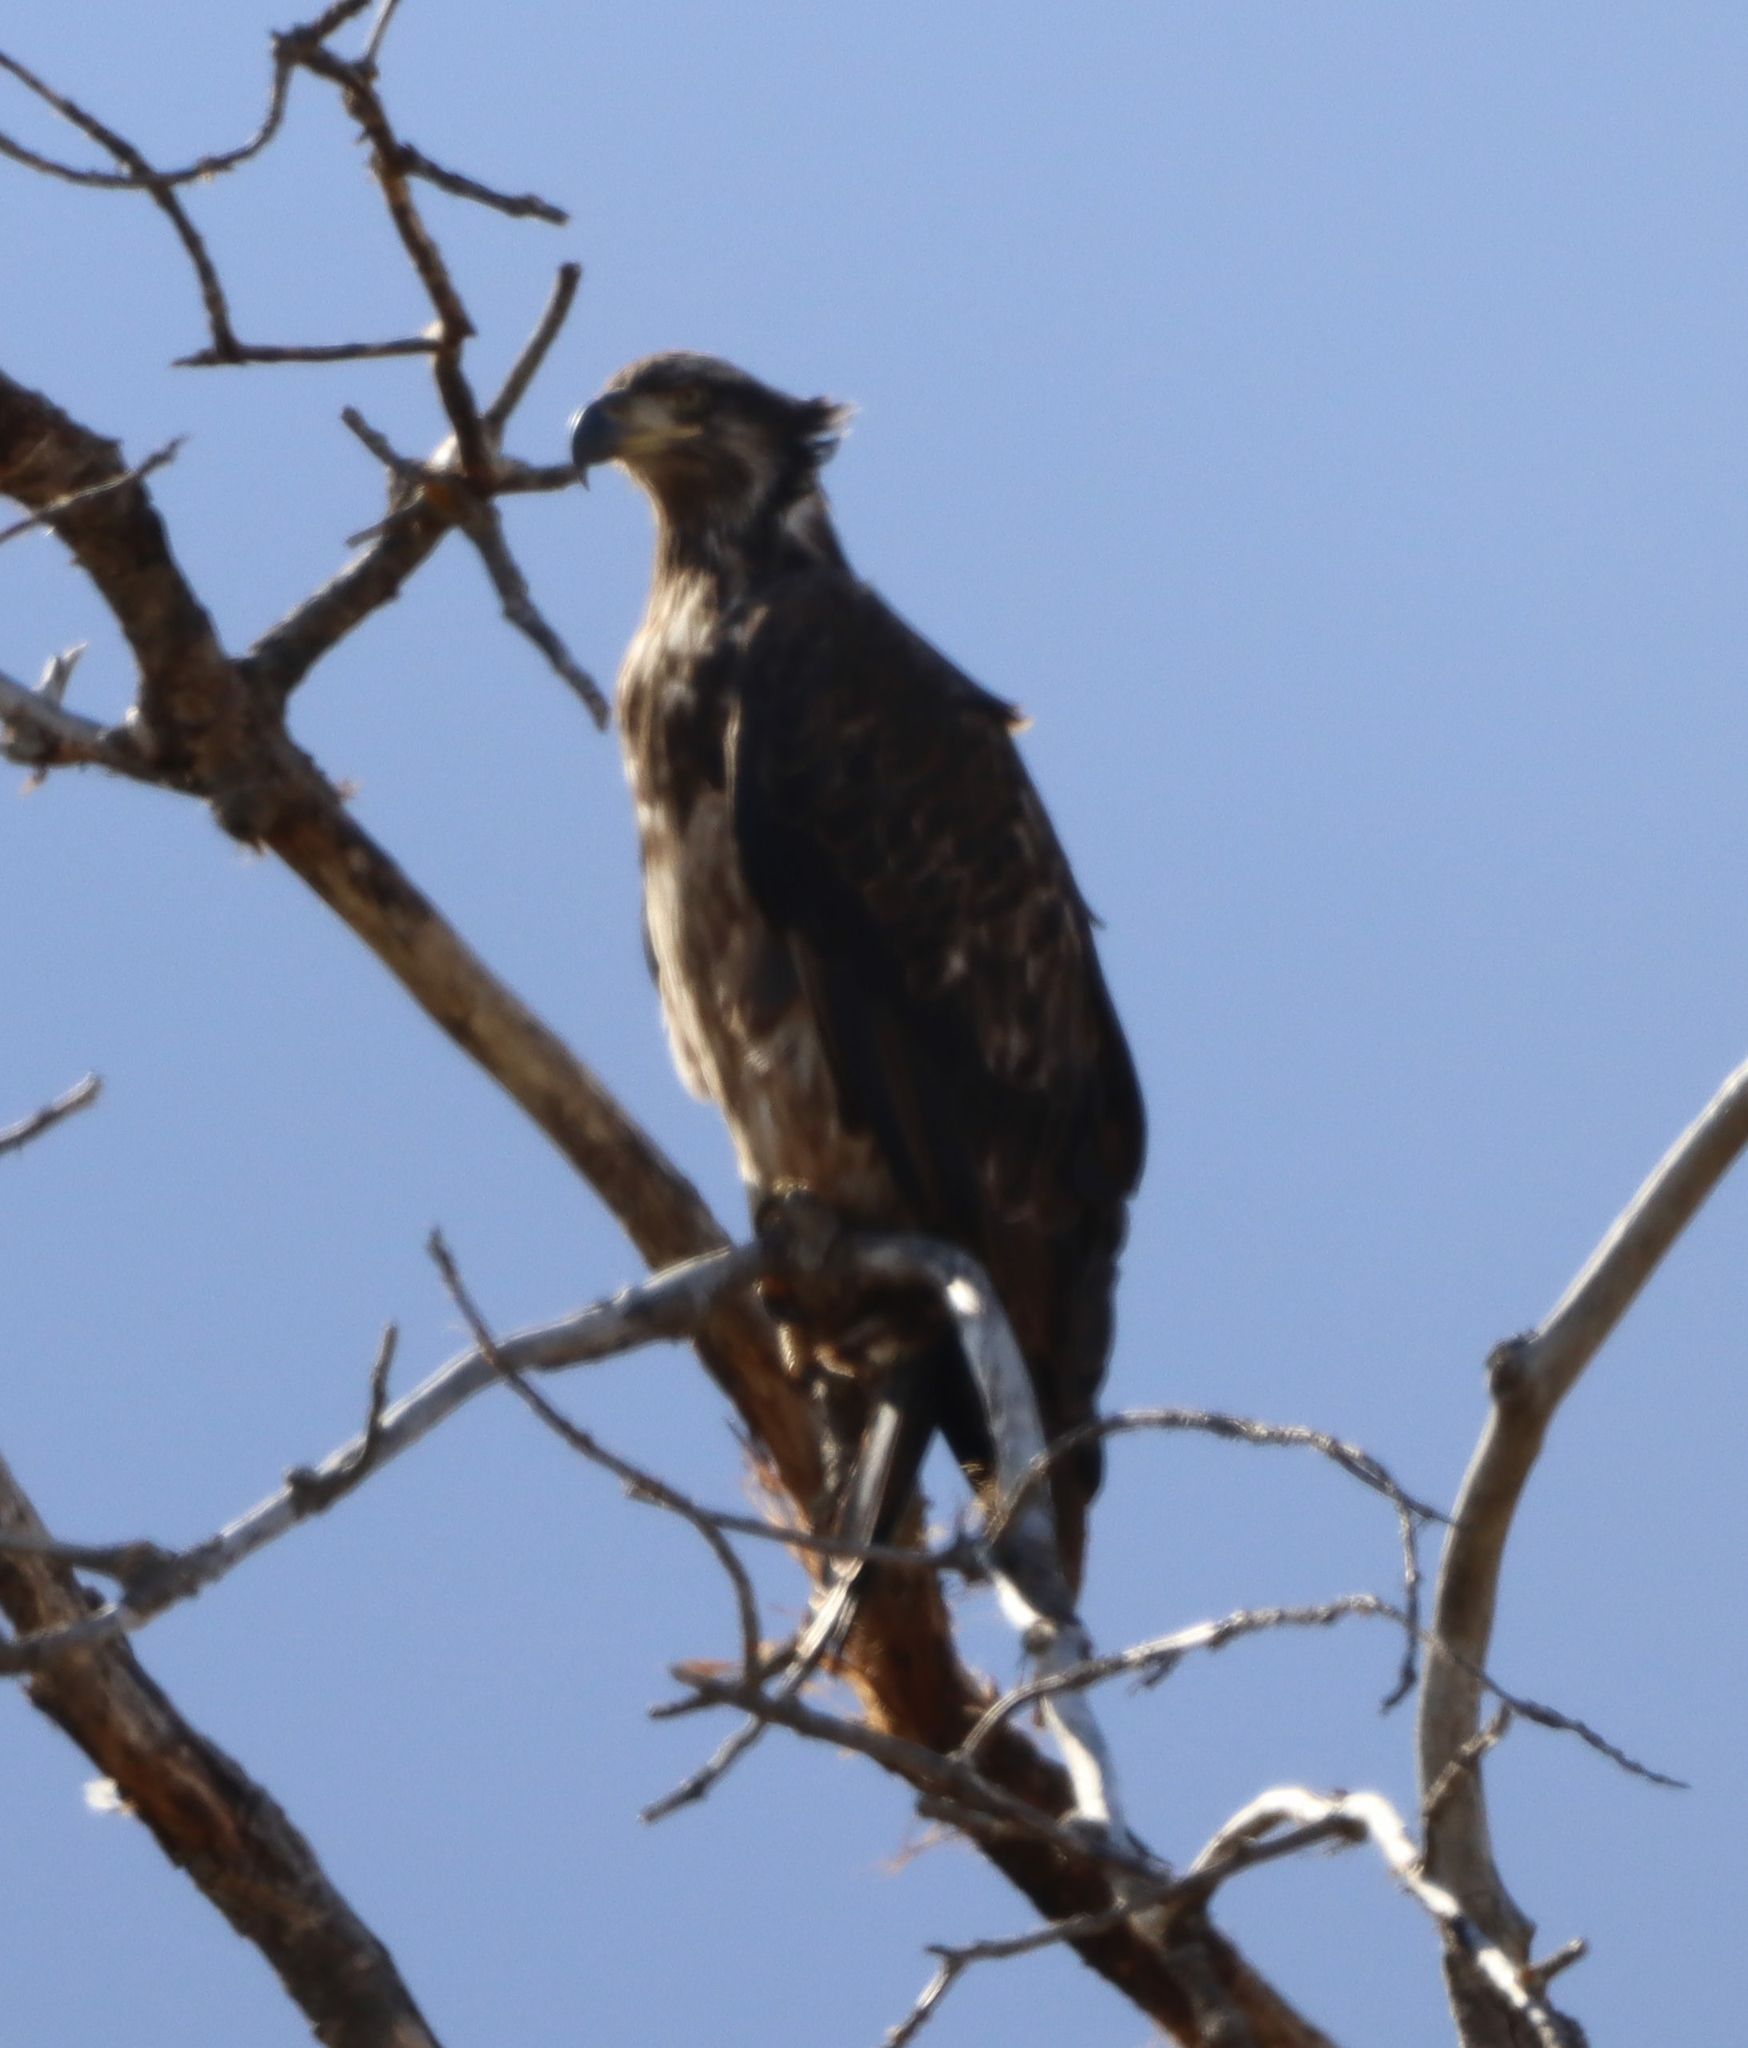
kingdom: Animalia
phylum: Chordata
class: Aves
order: Accipitriformes
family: Accipitridae
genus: Haliaeetus
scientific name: Haliaeetus leucocephalus
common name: Bald eagle
